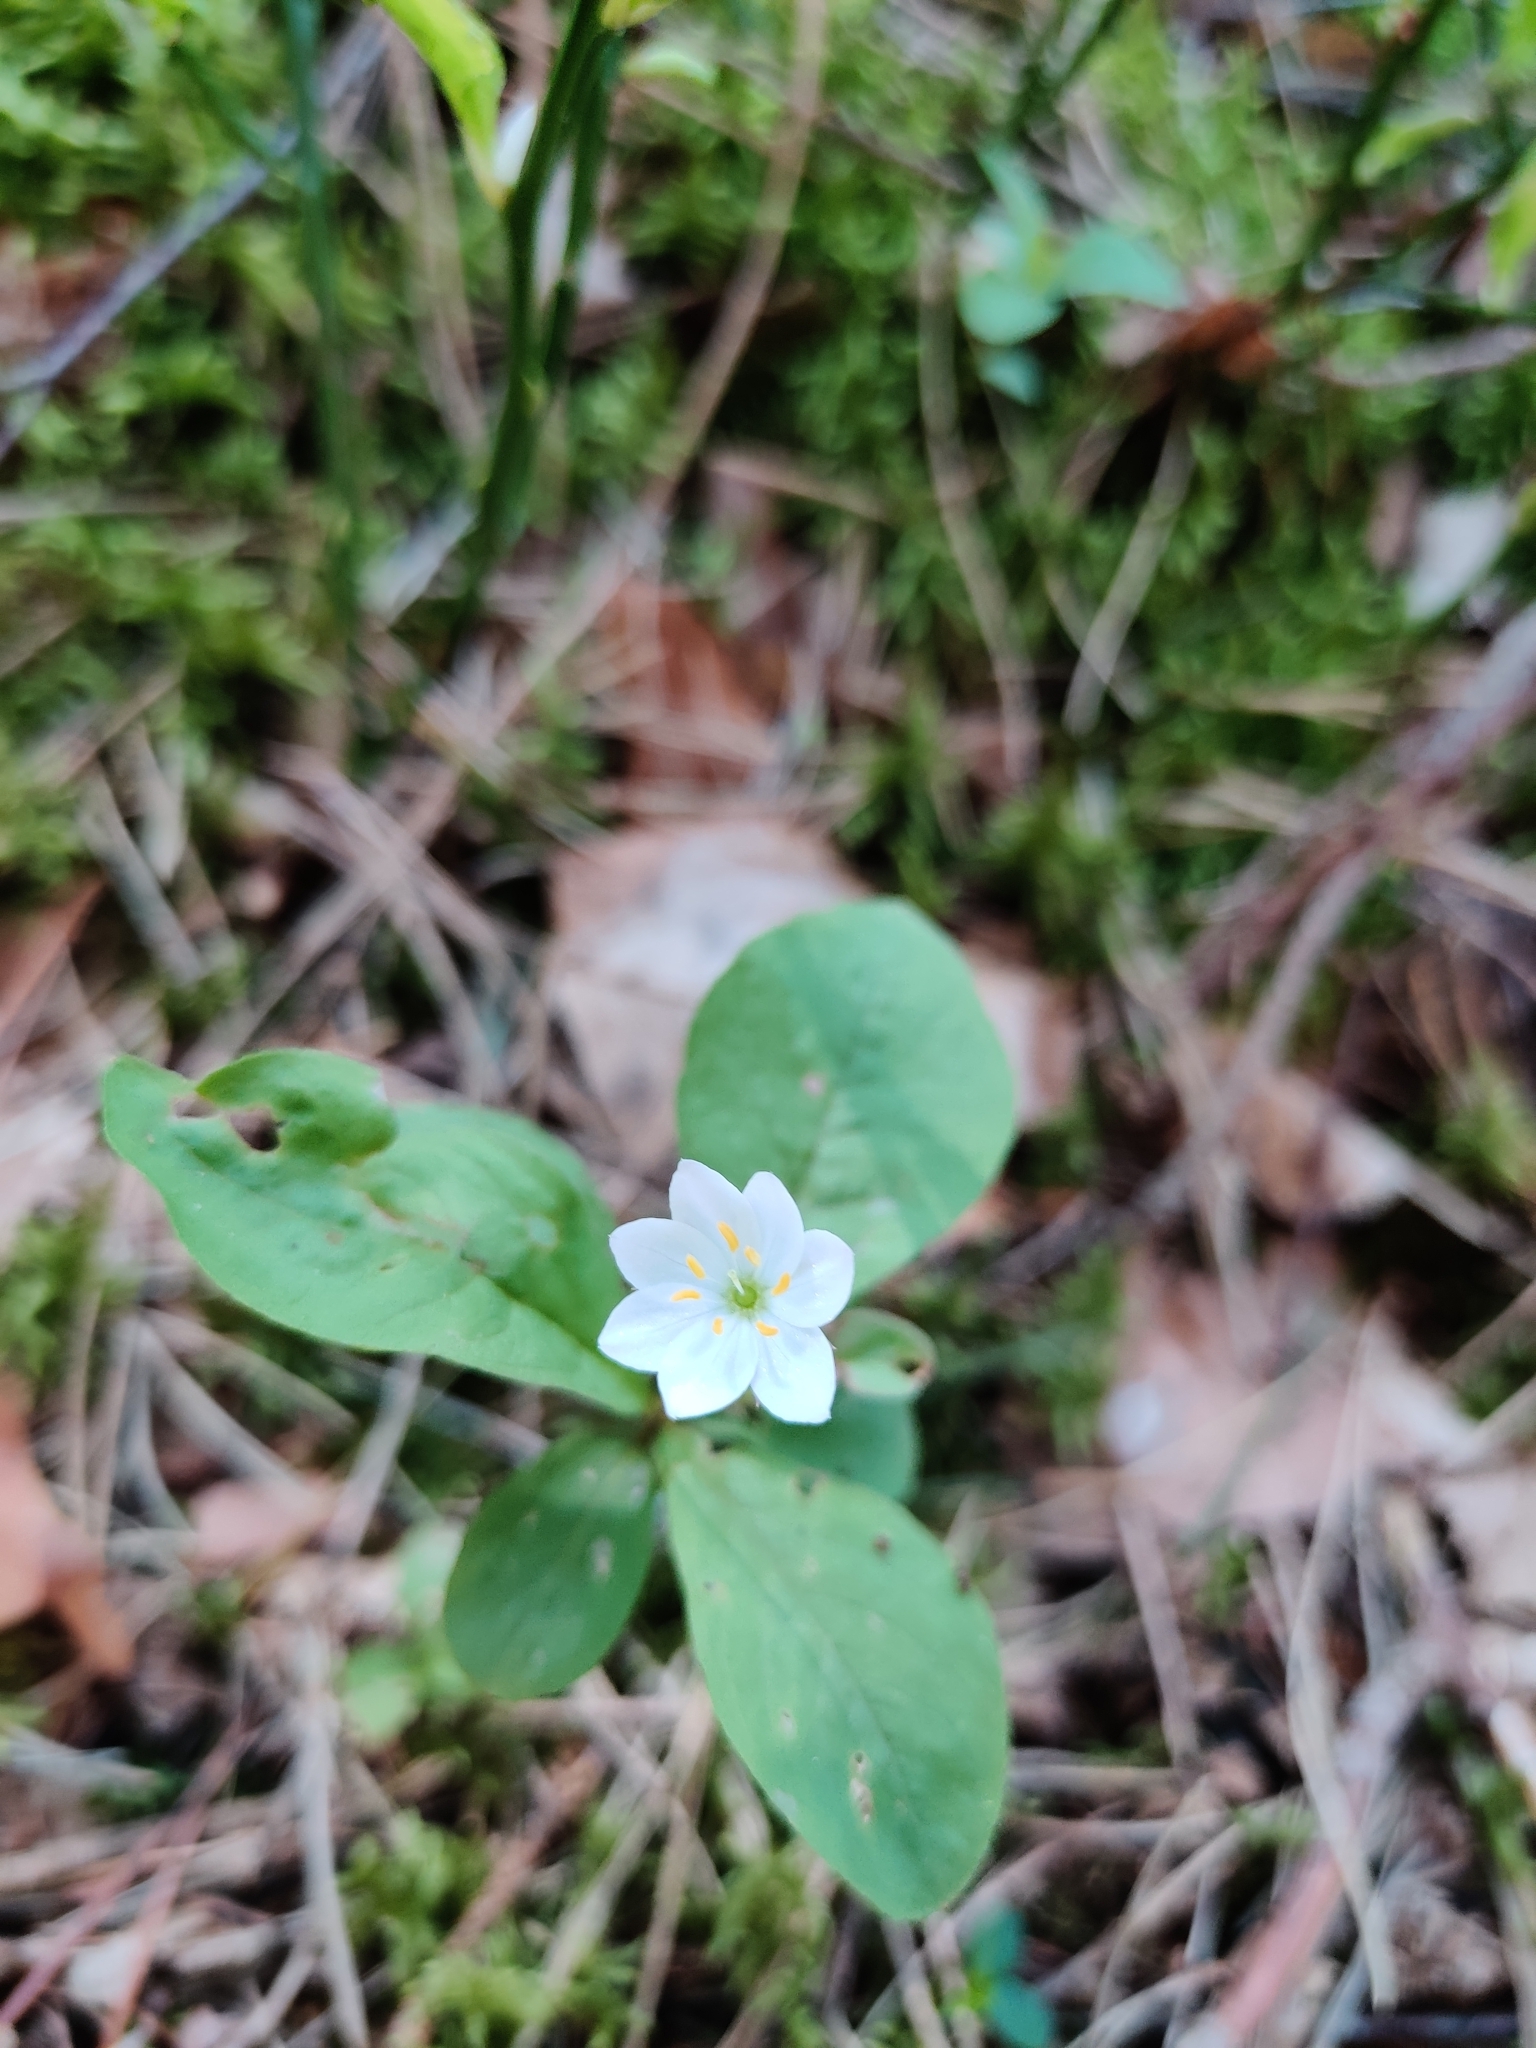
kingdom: Plantae
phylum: Tracheophyta
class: Magnoliopsida
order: Ericales
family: Primulaceae
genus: Lysimachia
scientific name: Lysimachia europaea
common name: Arctic starflower
